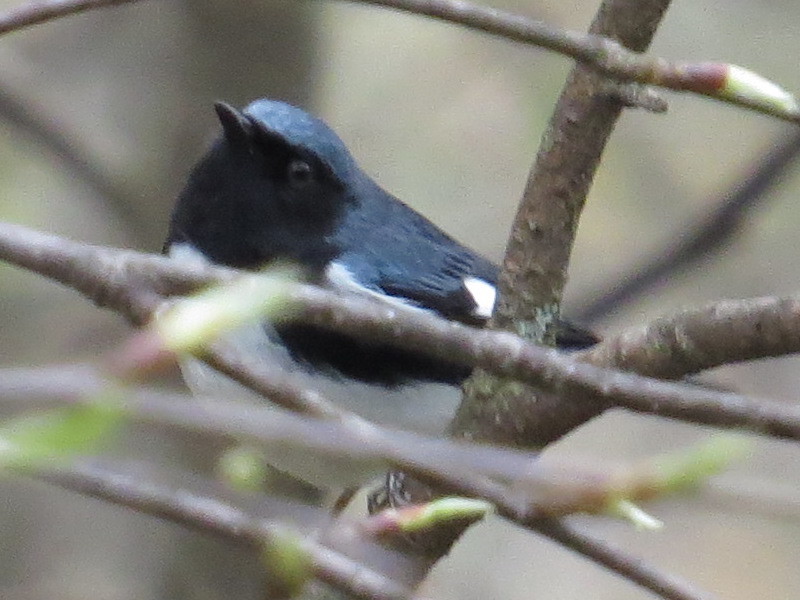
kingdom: Animalia
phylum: Chordata
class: Aves
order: Passeriformes
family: Parulidae
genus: Setophaga
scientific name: Setophaga caerulescens
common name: Black-throated blue warbler
